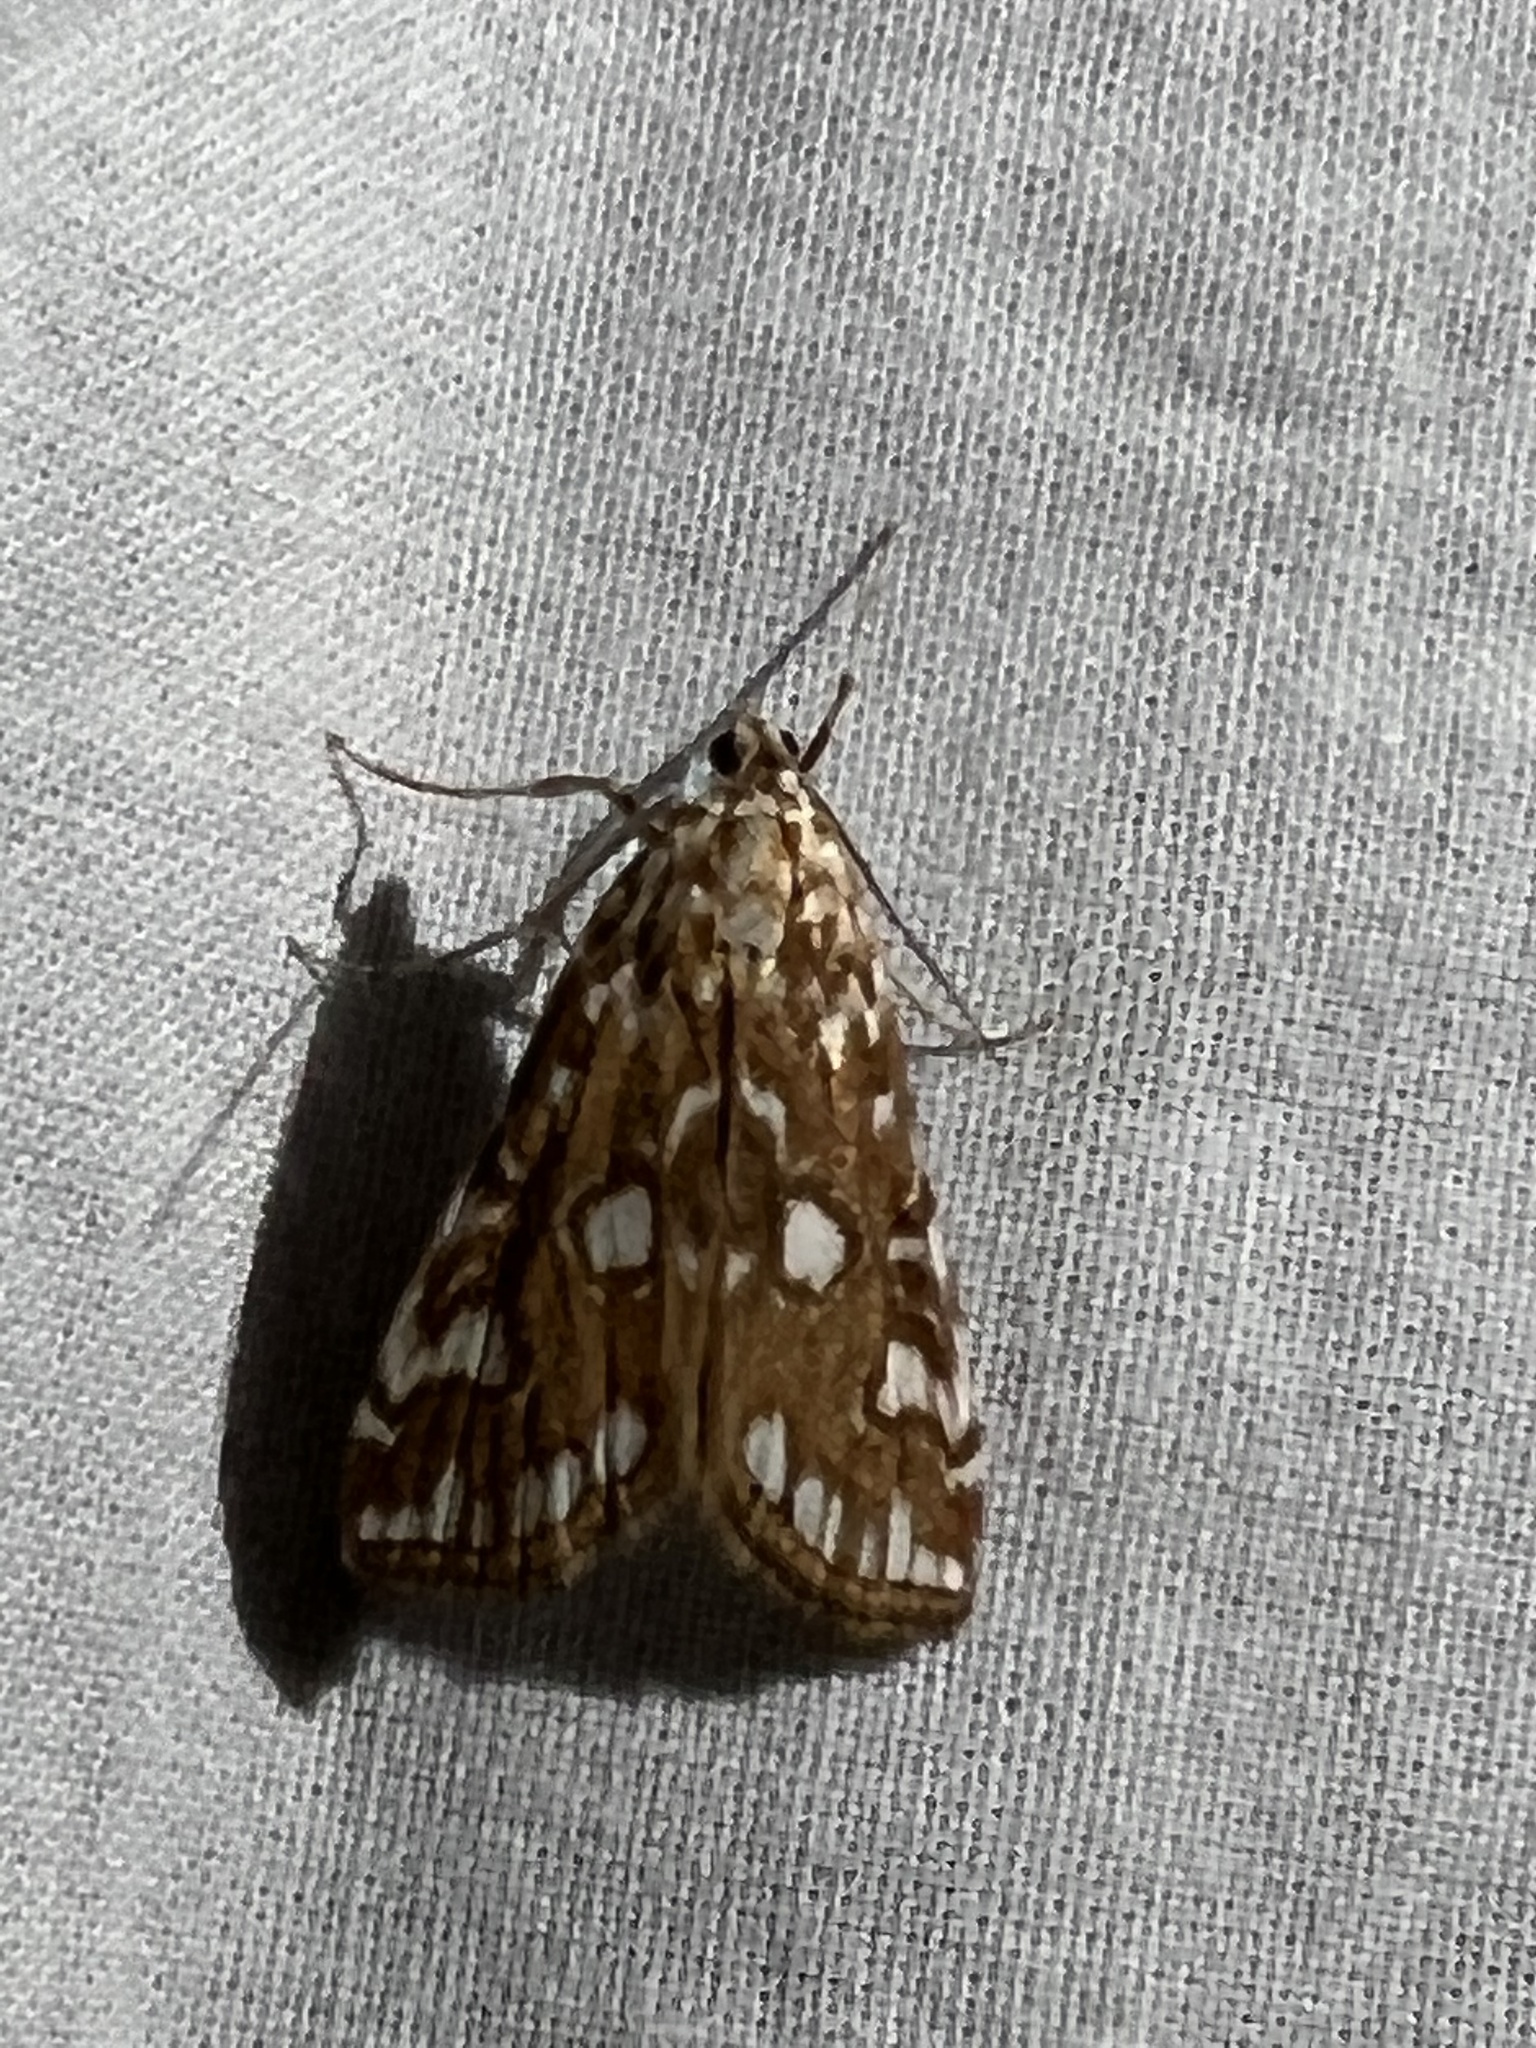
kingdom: Animalia
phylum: Arthropoda
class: Insecta
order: Lepidoptera
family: Crambidae
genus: Elophila
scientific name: Elophila nymphaeata
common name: Brown china-mark
